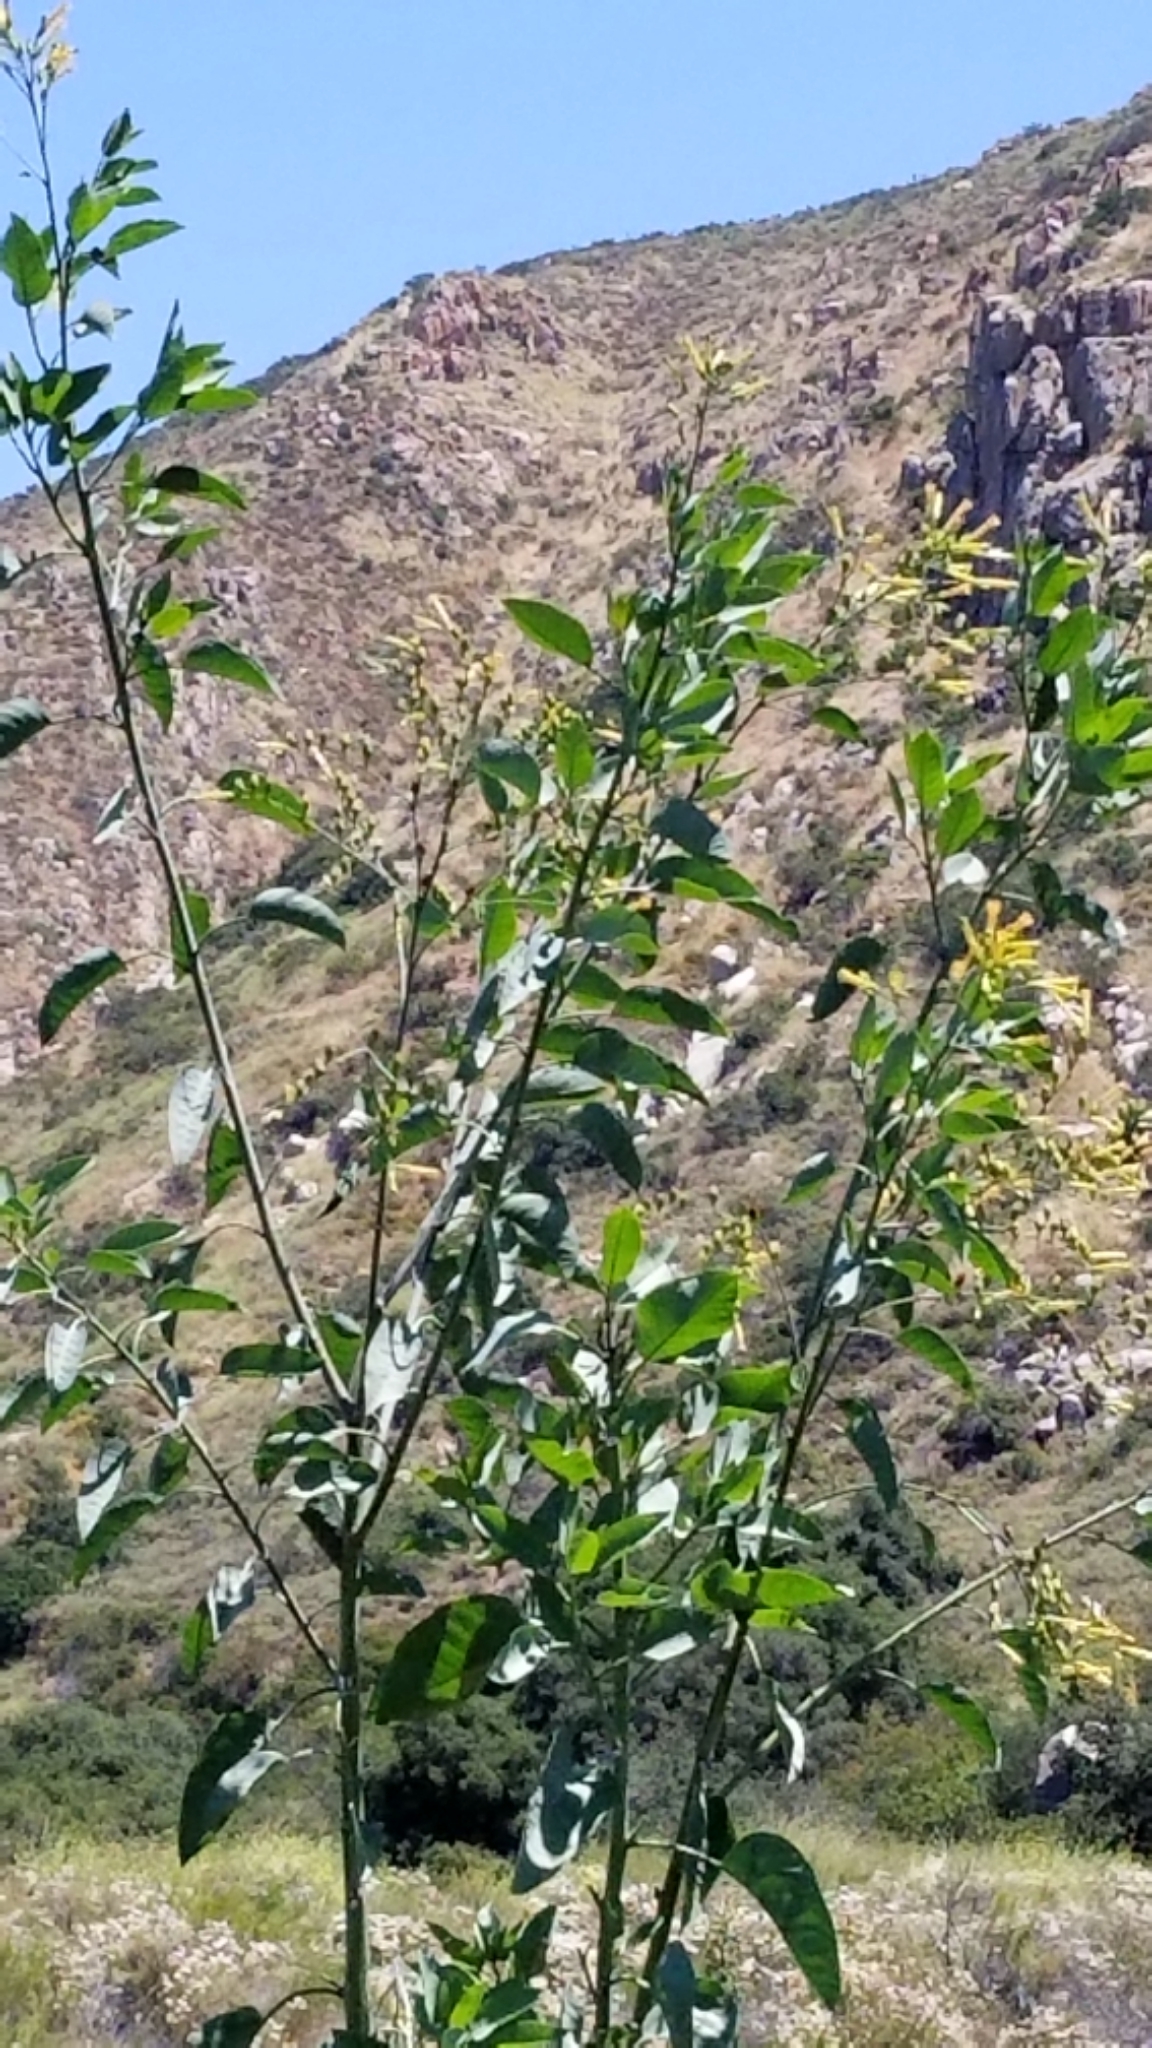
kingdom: Plantae
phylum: Tracheophyta
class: Magnoliopsida
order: Solanales
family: Solanaceae
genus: Nicotiana
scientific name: Nicotiana glauca
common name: Tree tobacco
